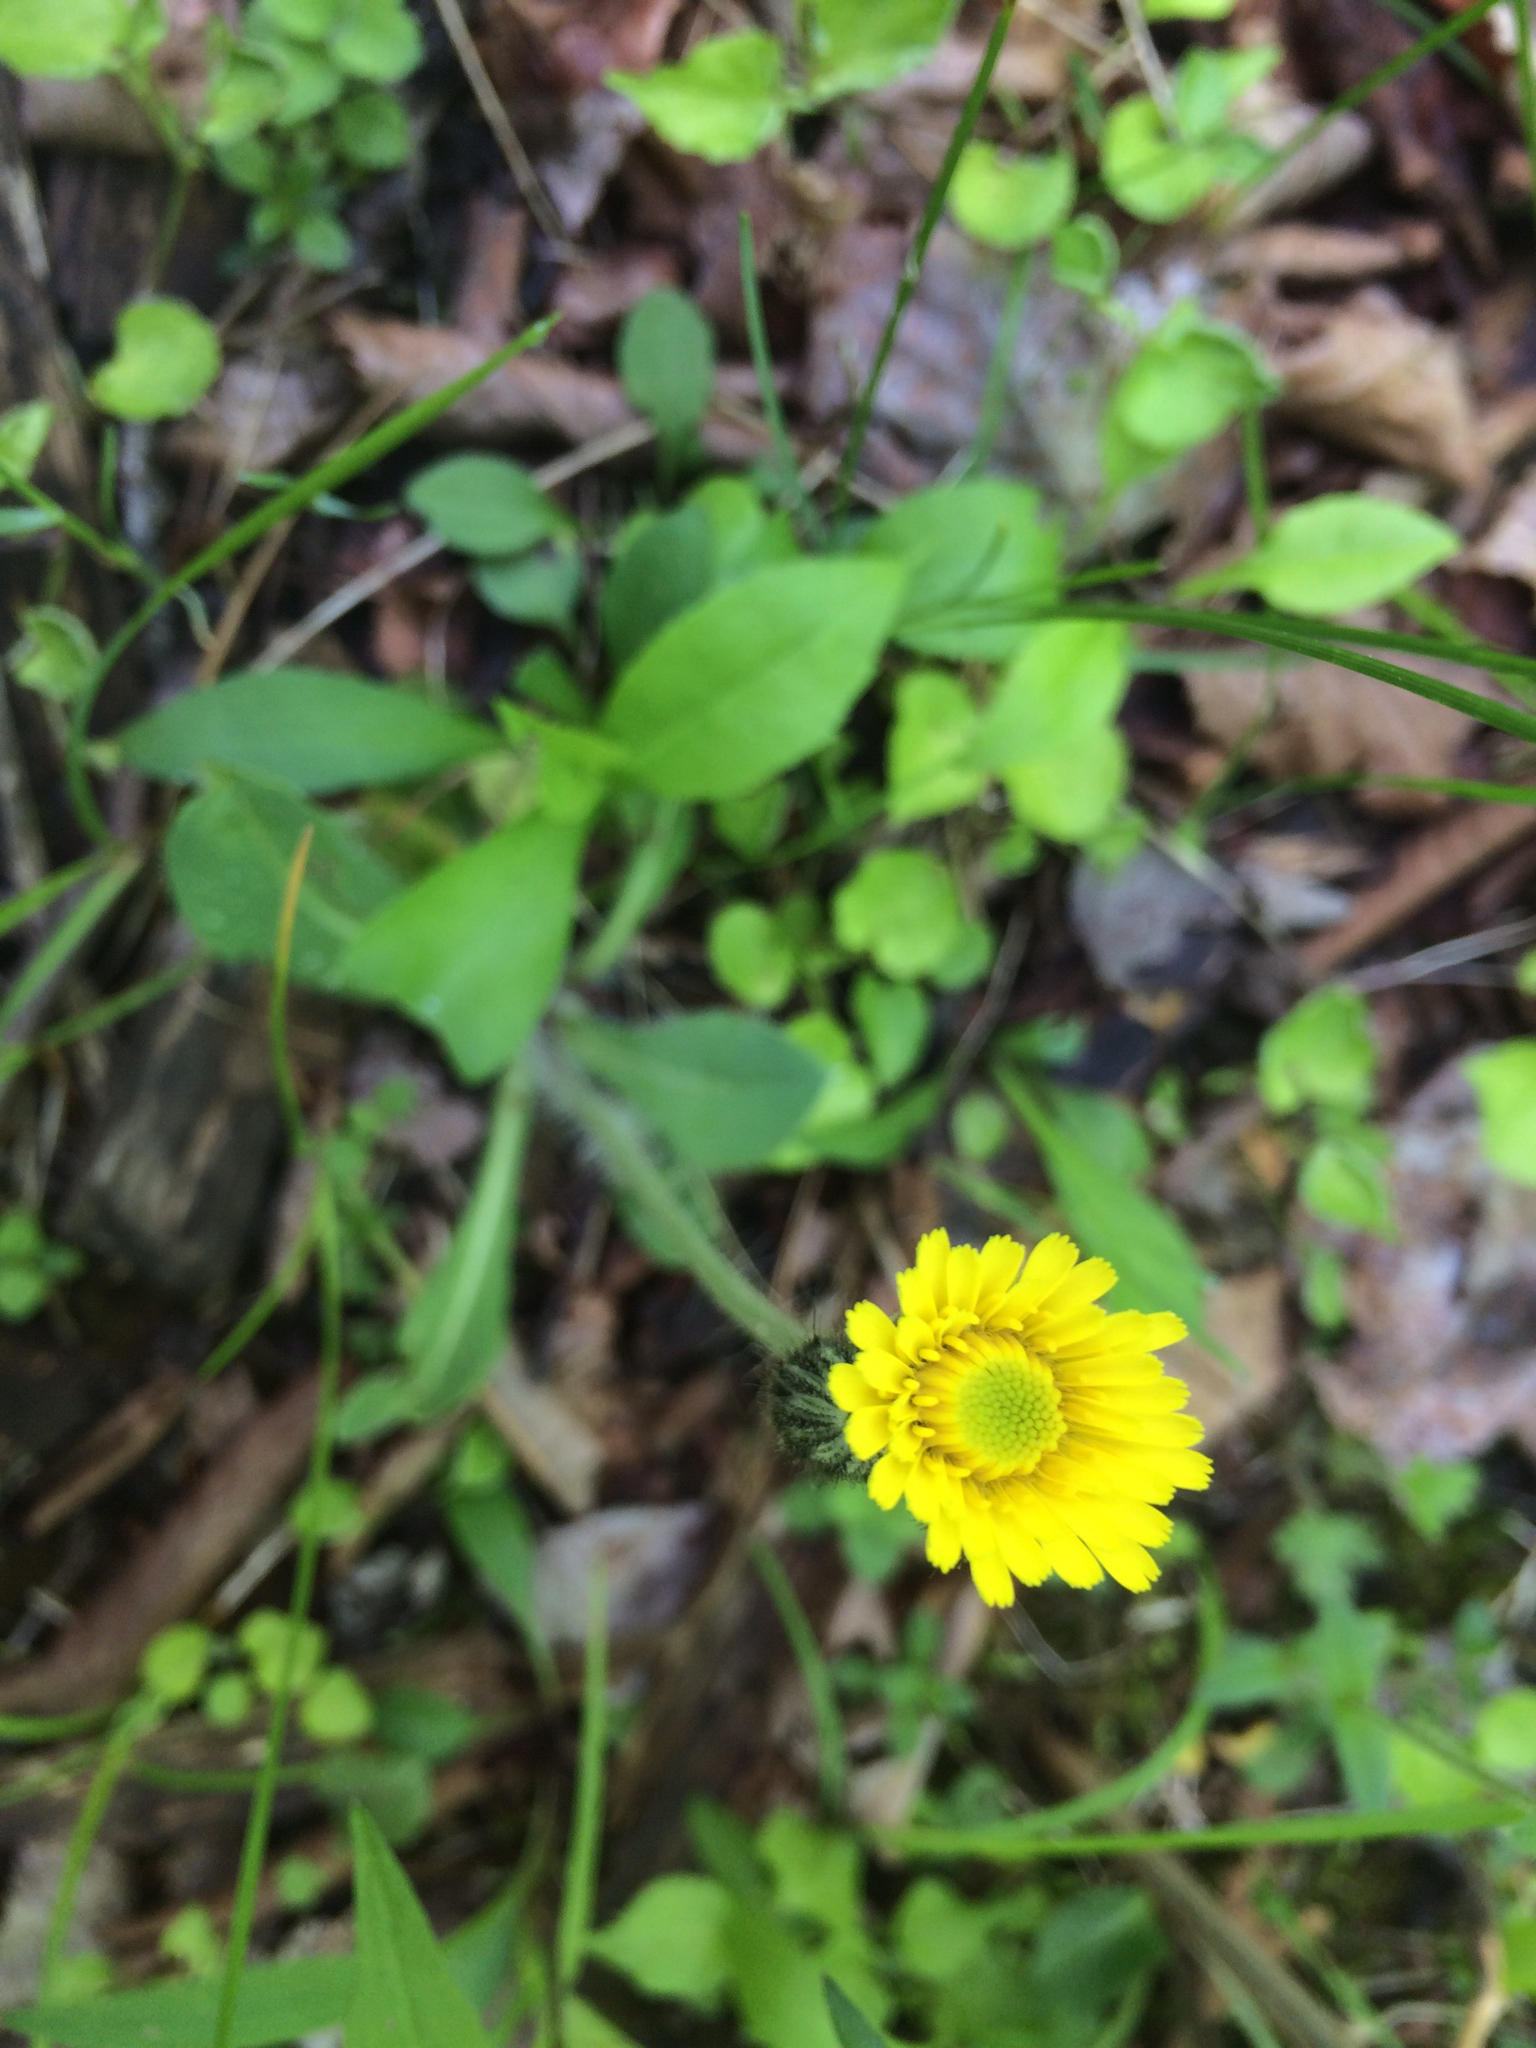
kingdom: Plantae
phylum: Tracheophyta
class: Magnoliopsida
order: Asterales
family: Asteraceae
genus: Pilosella
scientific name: Pilosella piloselloides
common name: Glaucous king-devil
